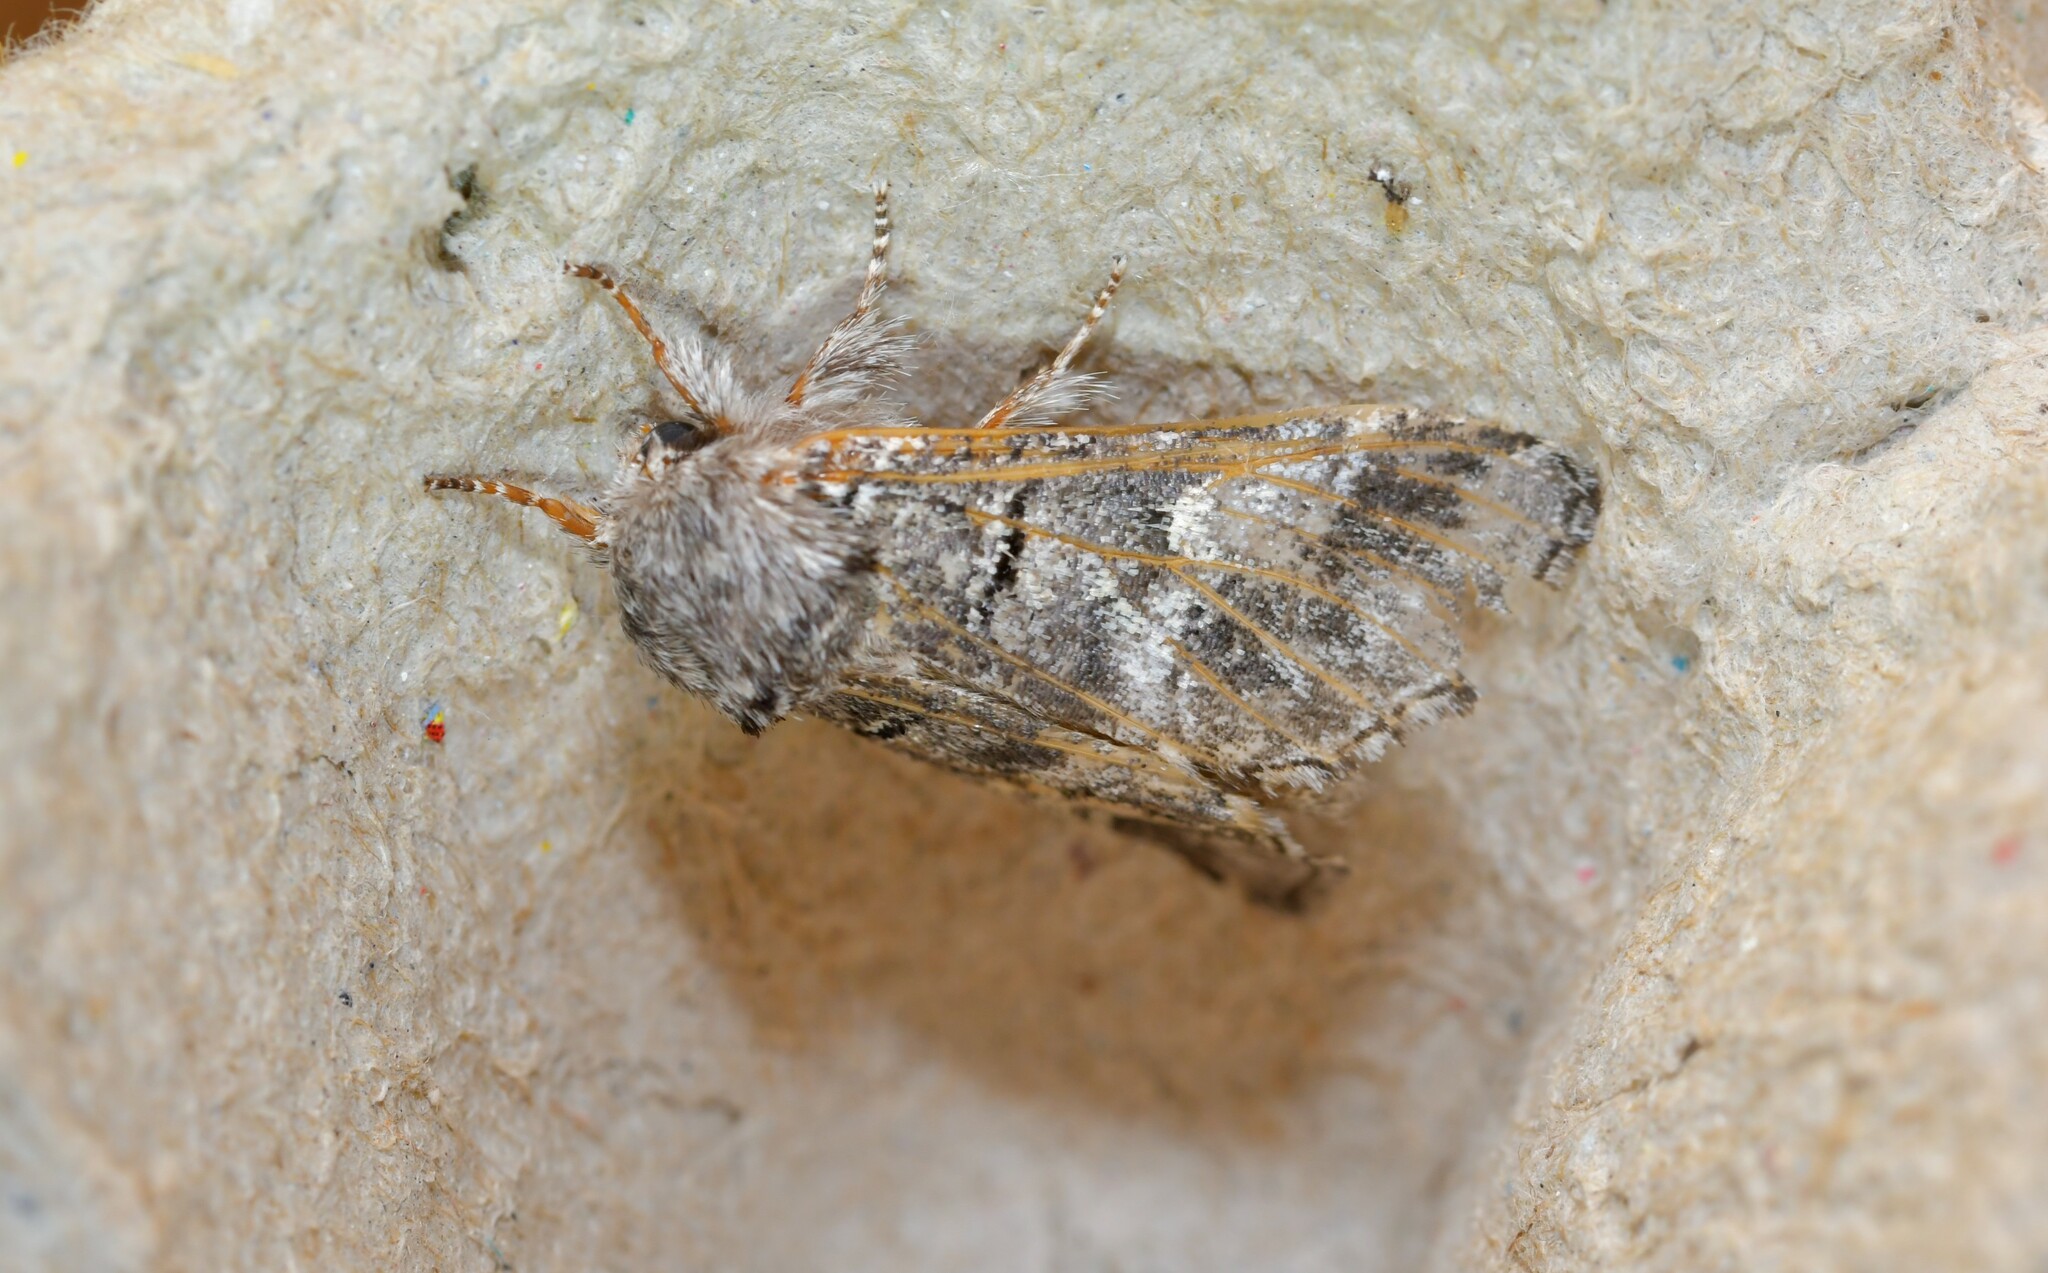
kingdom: Animalia
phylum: Arthropoda
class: Insecta
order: Lepidoptera
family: Notodontidae
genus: Drymonia
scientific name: Drymonia querna
